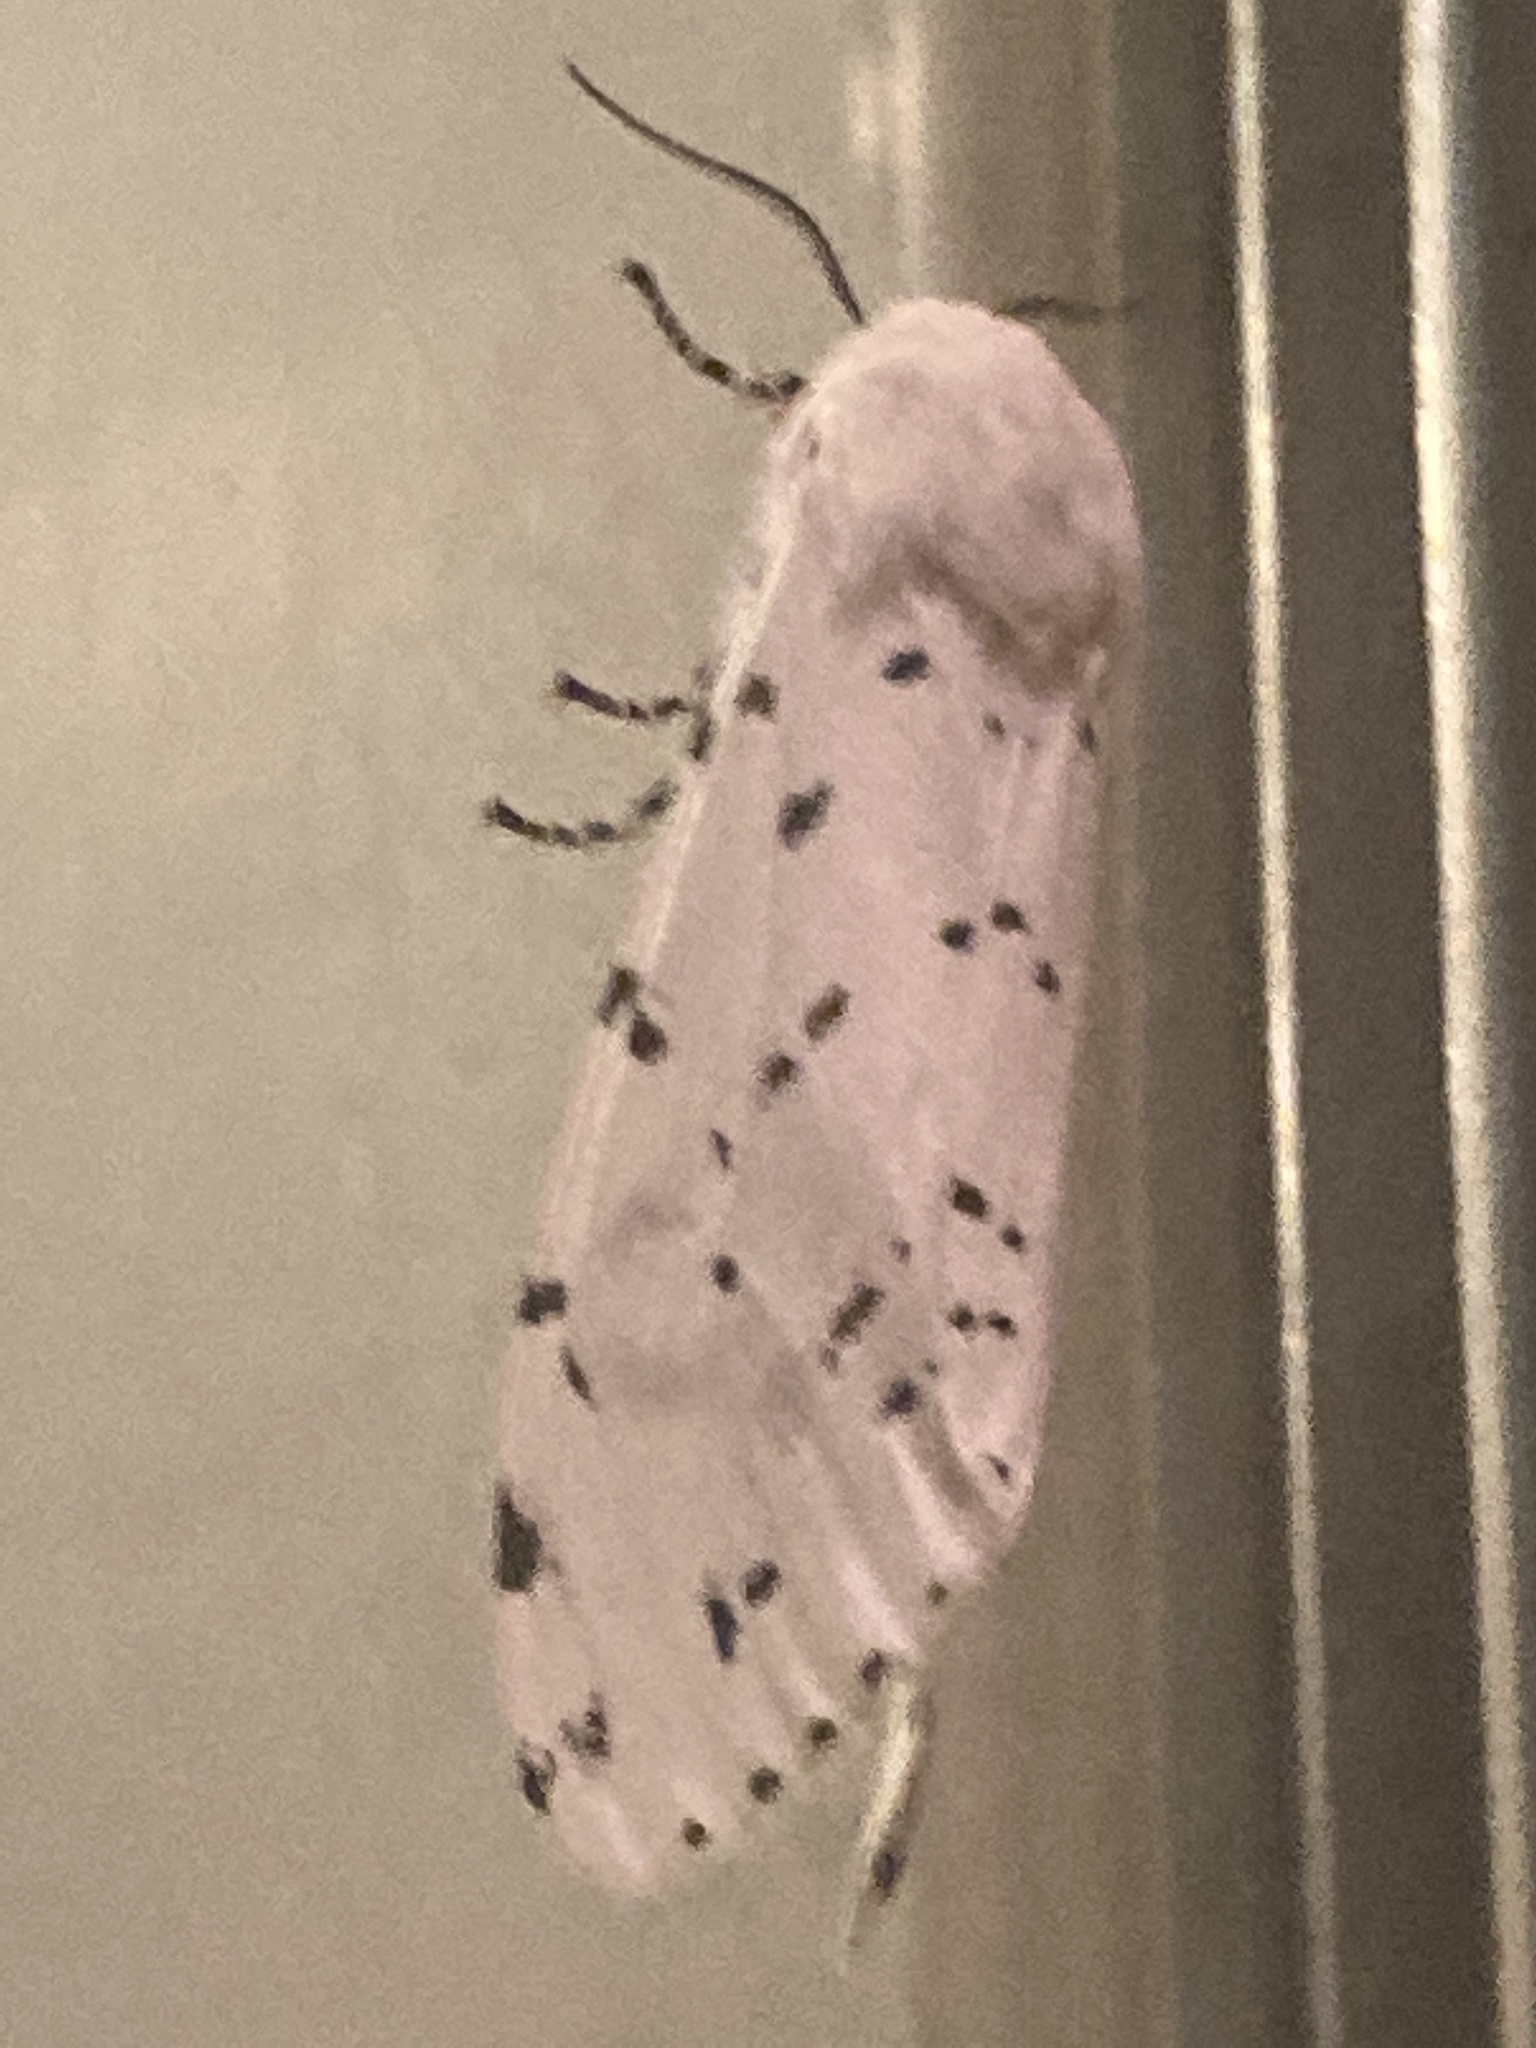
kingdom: Animalia
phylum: Arthropoda
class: Insecta
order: Lepidoptera
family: Erebidae
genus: Estigmene
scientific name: Estigmene acrea
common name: Salt marsh moth
